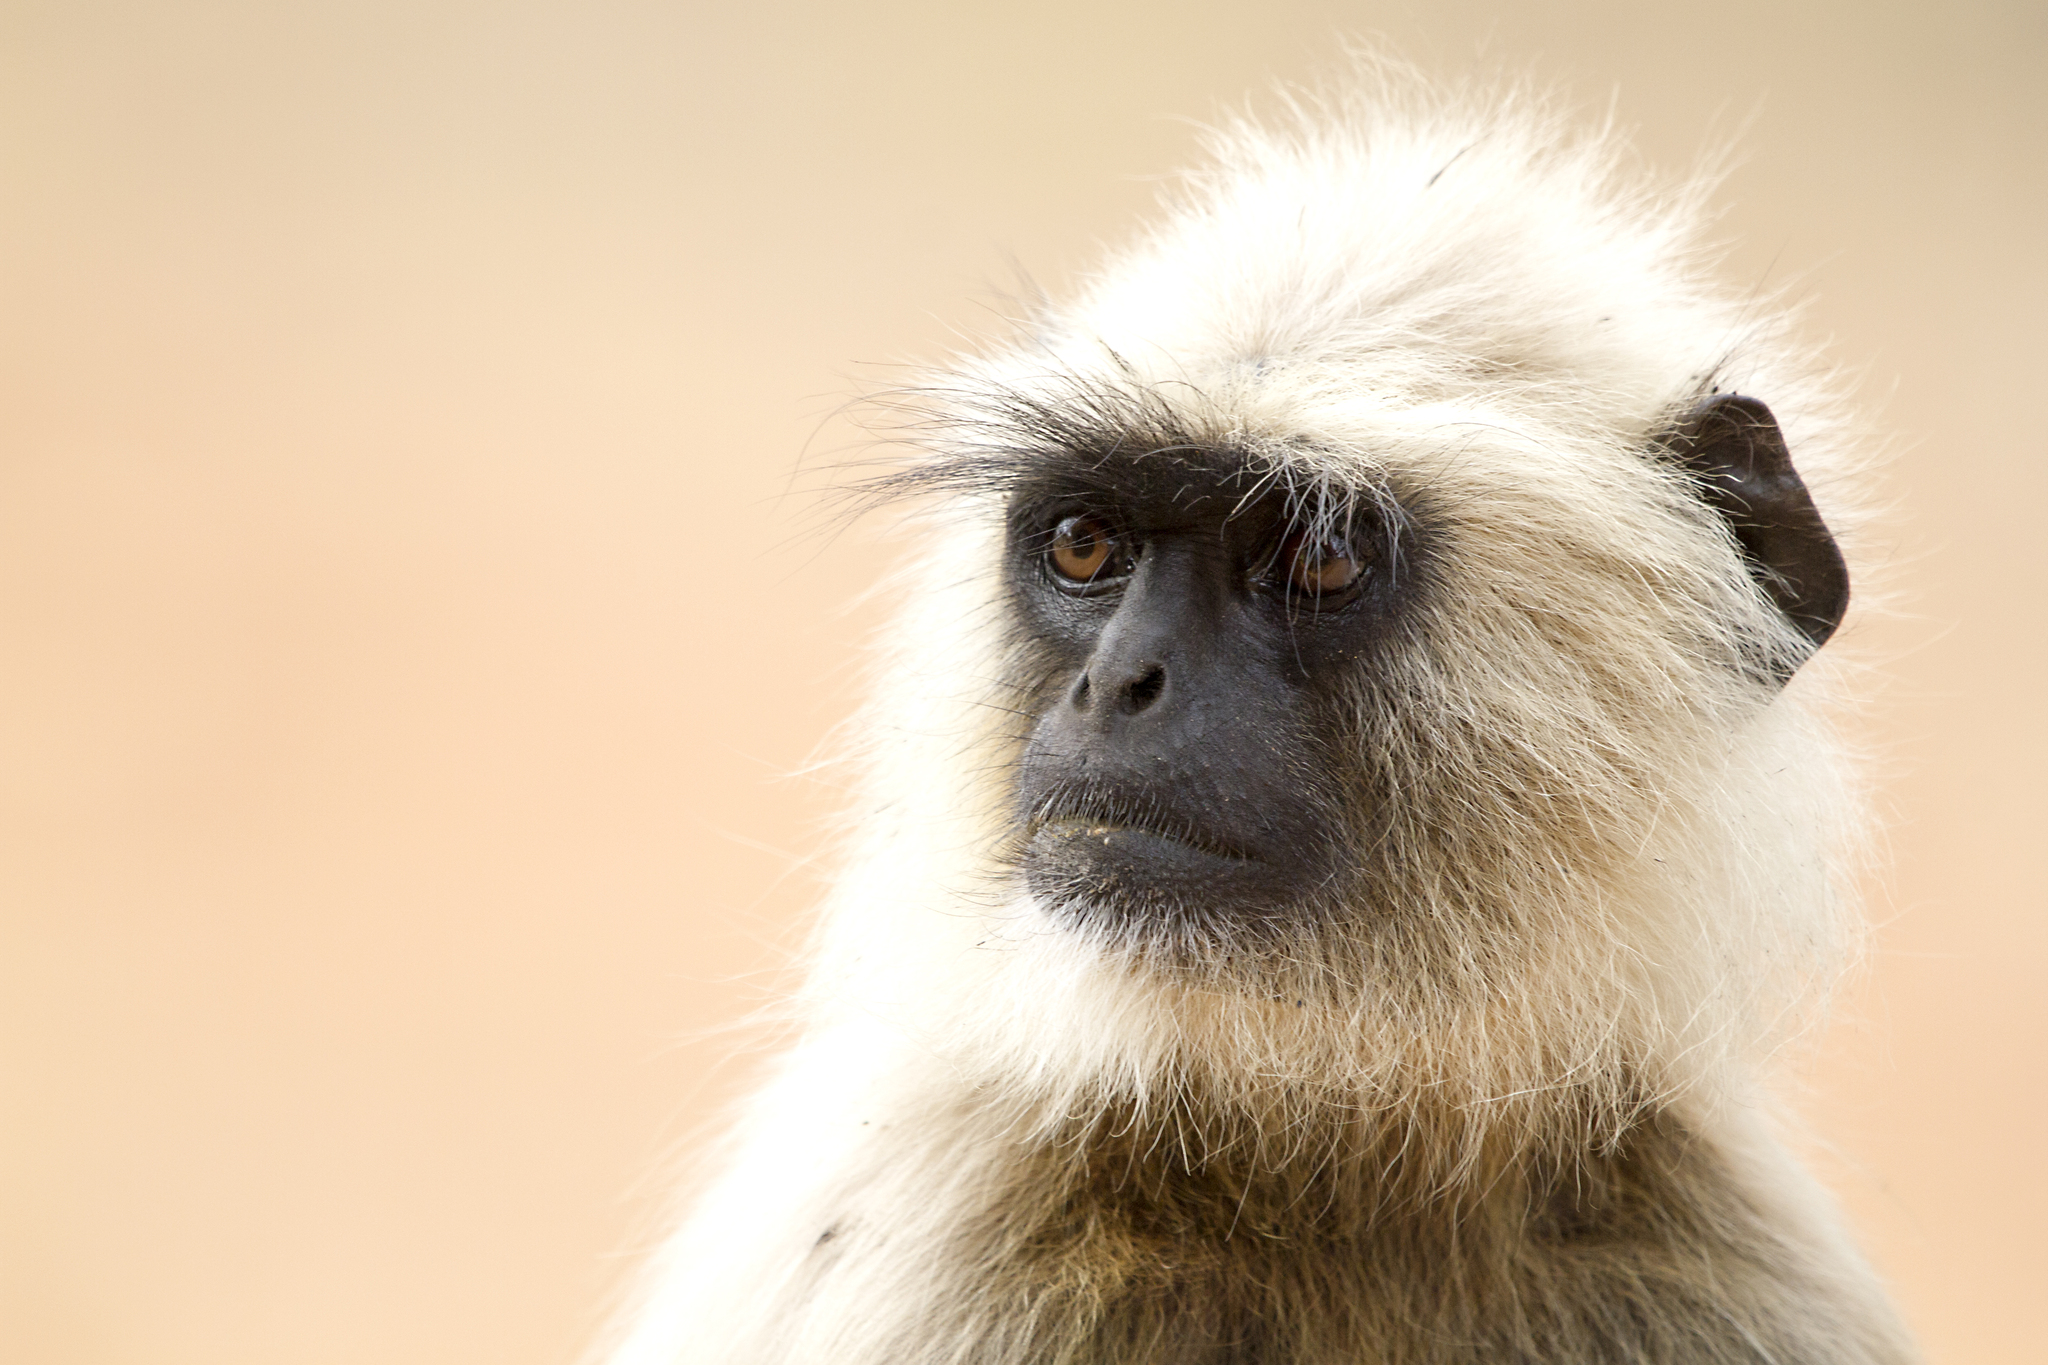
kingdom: Animalia
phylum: Chordata
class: Mammalia
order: Primates
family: Cercopithecidae
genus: Semnopithecus
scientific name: Semnopithecus entellus
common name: Northern plains gray langur
